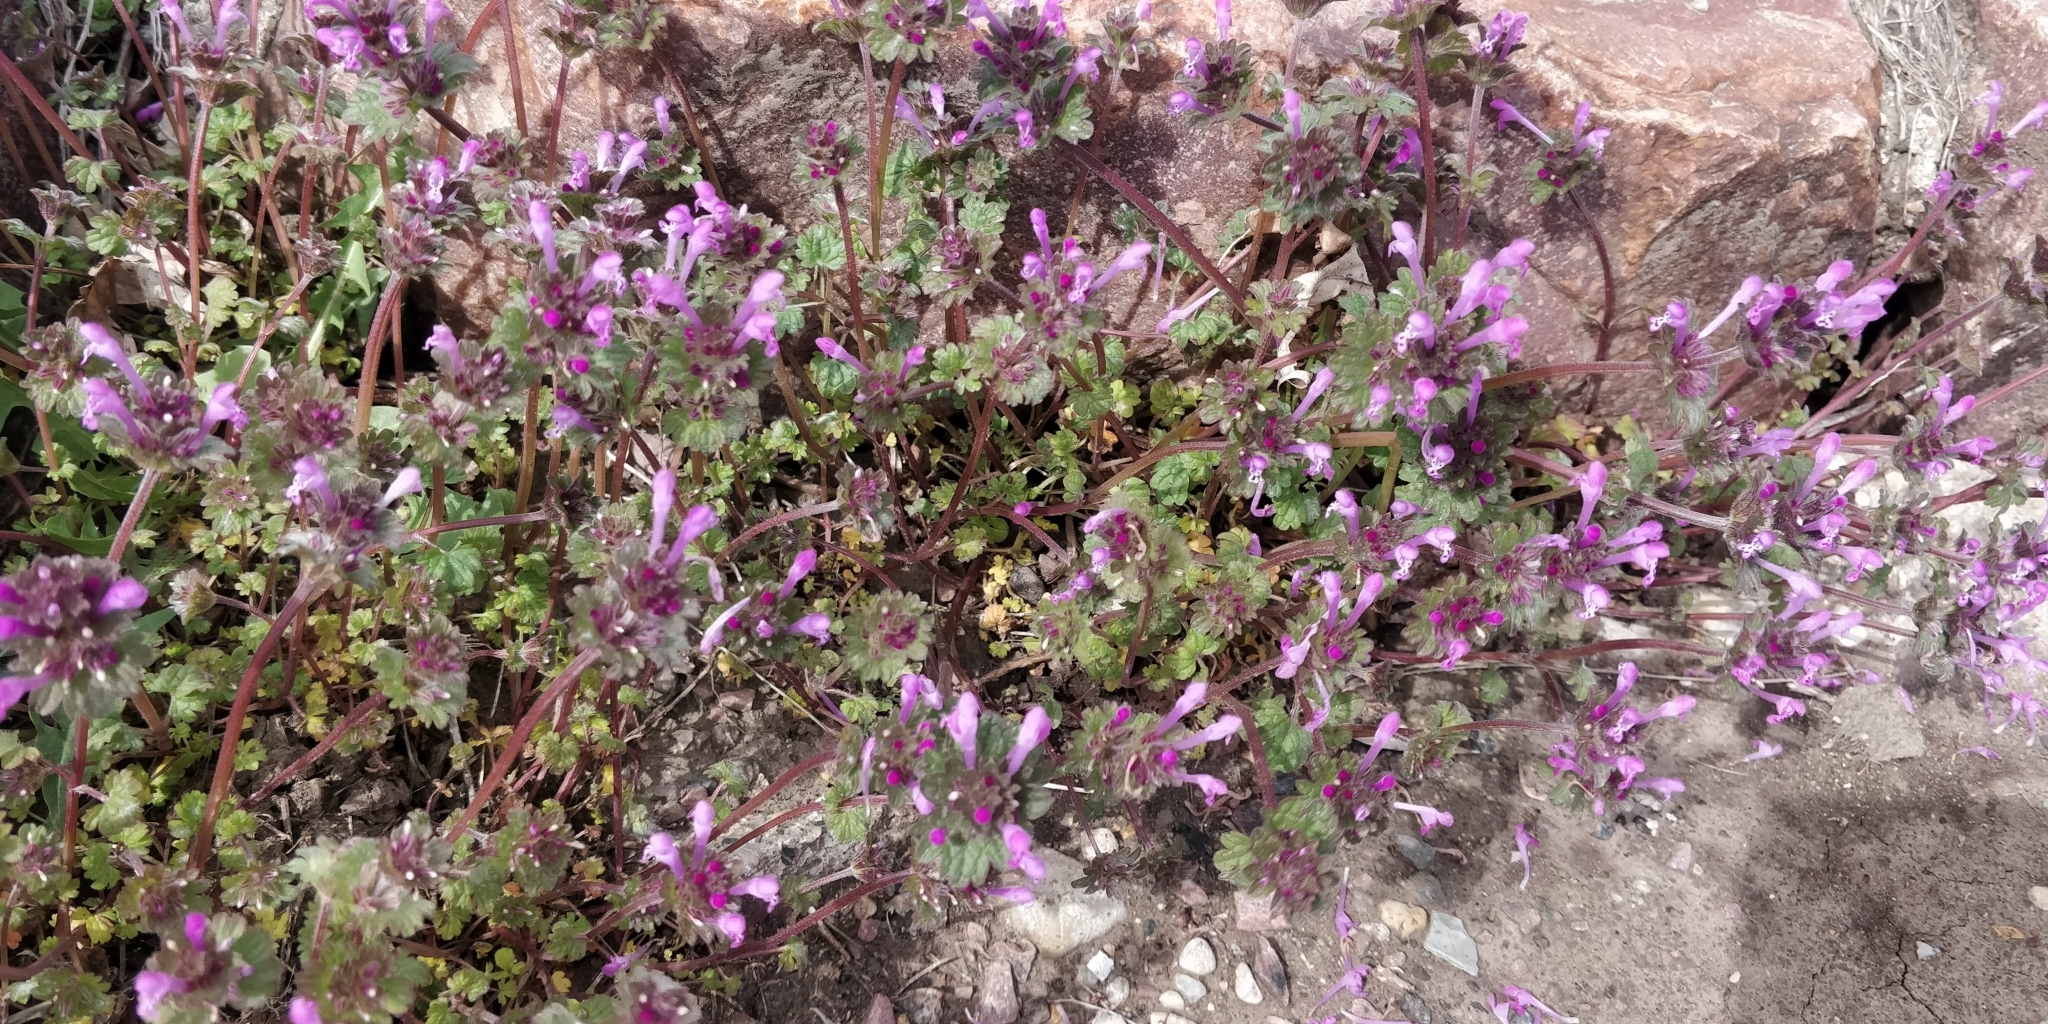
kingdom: Plantae
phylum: Tracheophyta
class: Magnoliopsida
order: Lamiales
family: Lamiaceae
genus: Lamium
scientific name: Lamium amplexicaule
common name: Henbit dead-nettle
